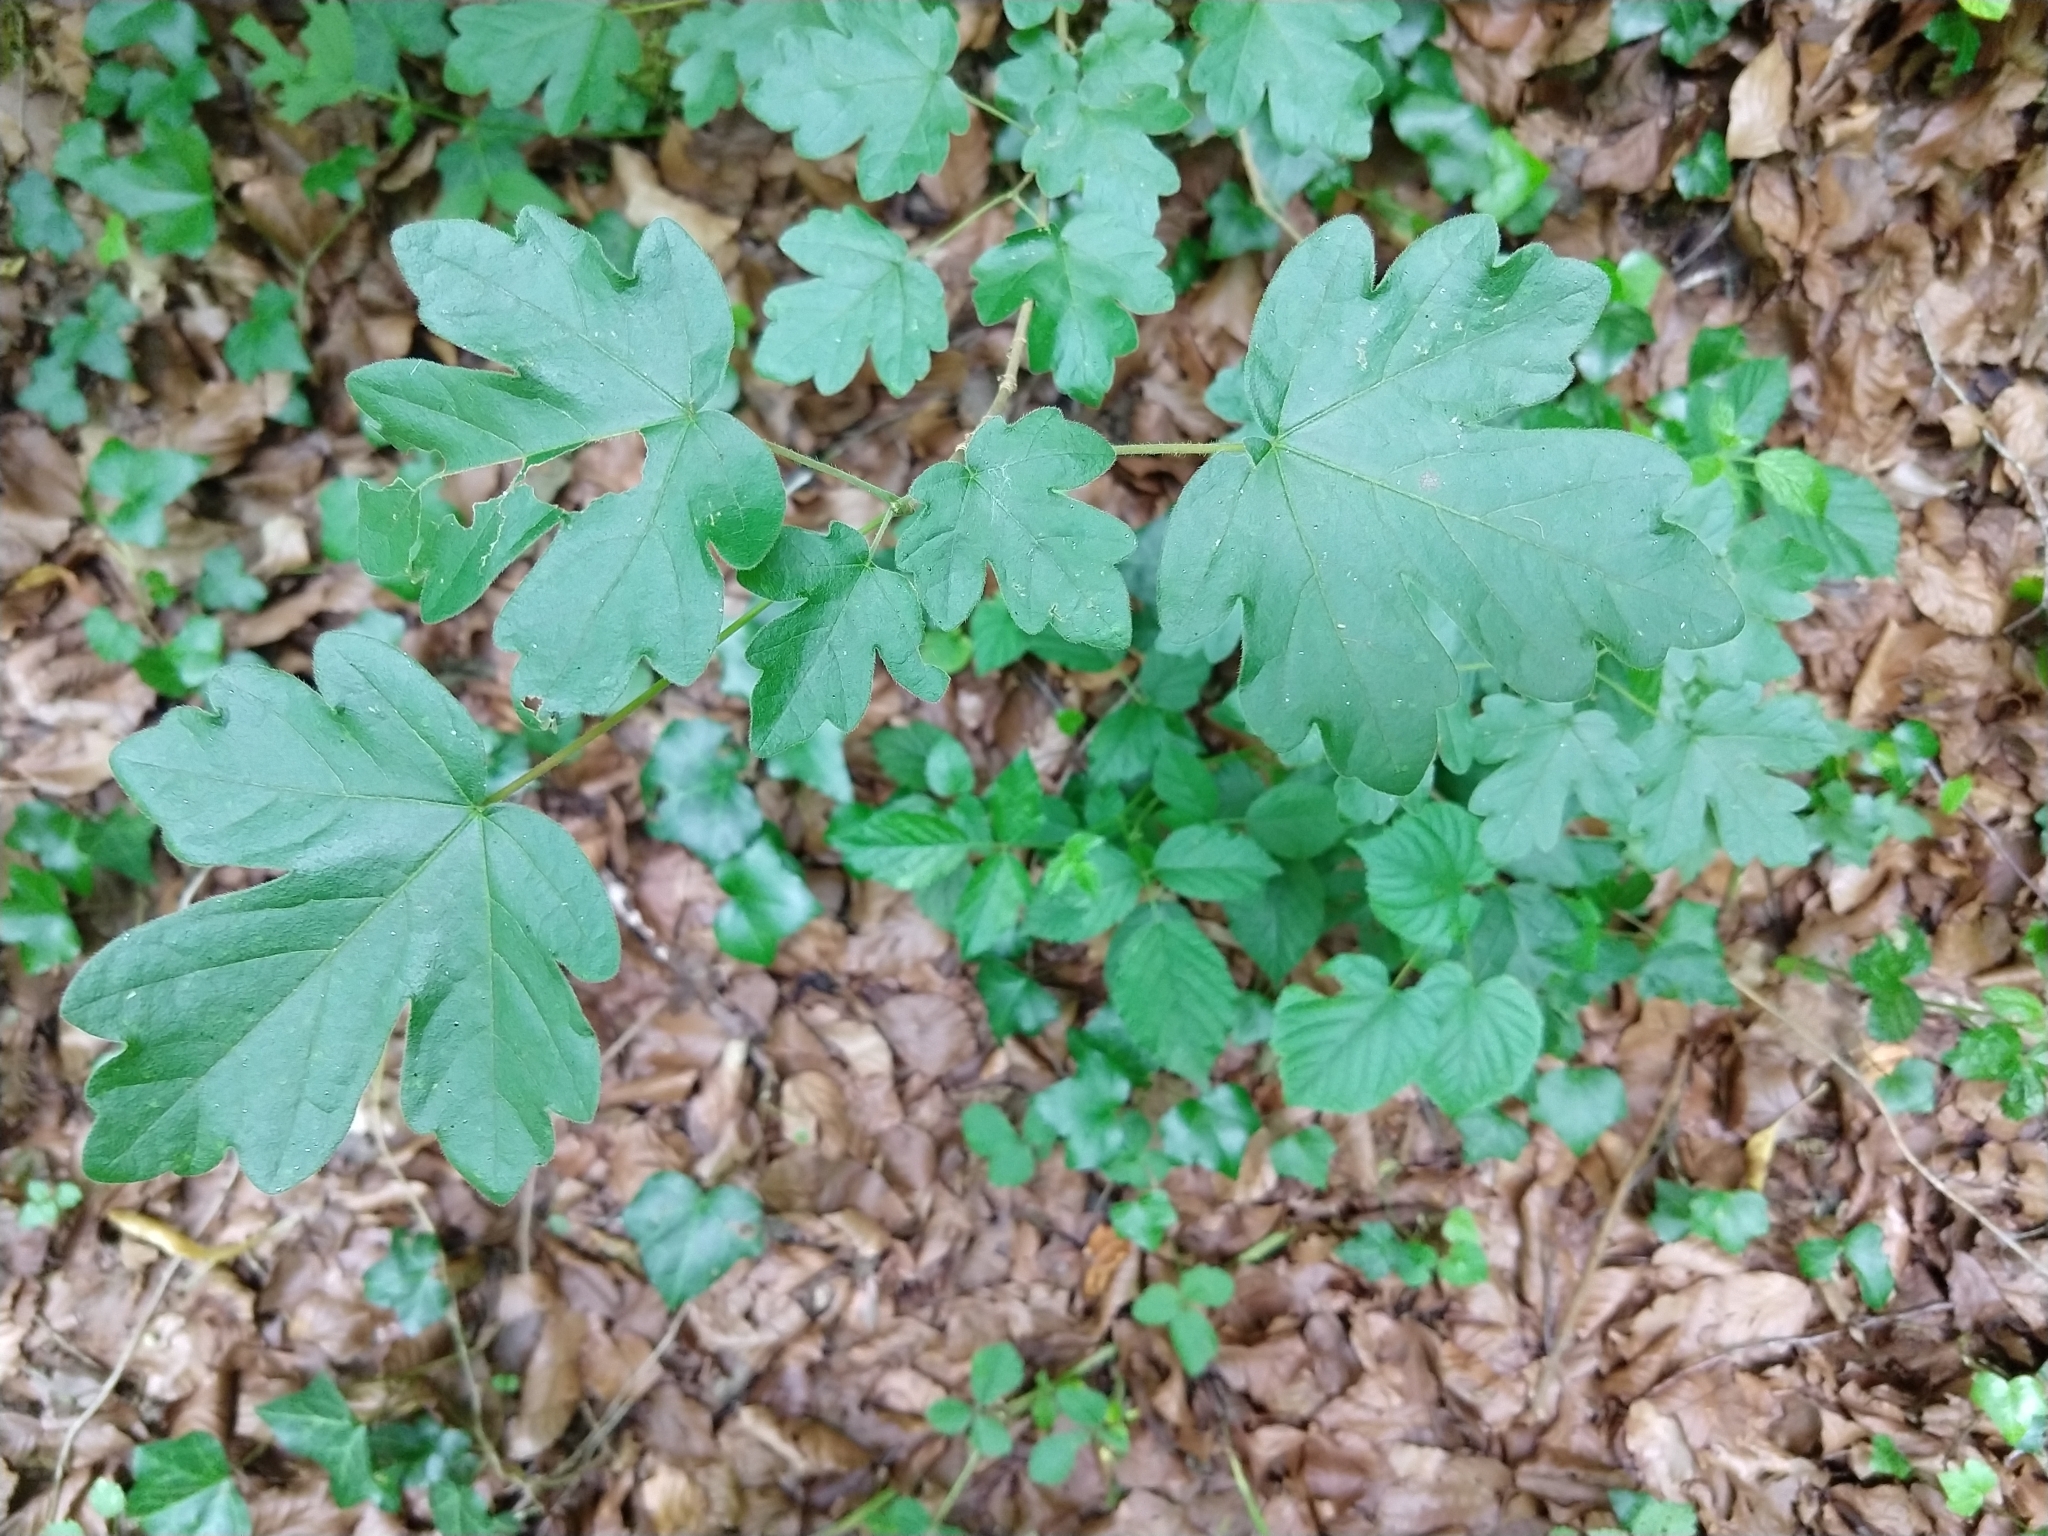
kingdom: Plantae
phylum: Tracheophyta
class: Magnoliopsida
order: Sapindales
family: Sapindaceae
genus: Acer
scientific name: Acer campestre
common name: Field maple
